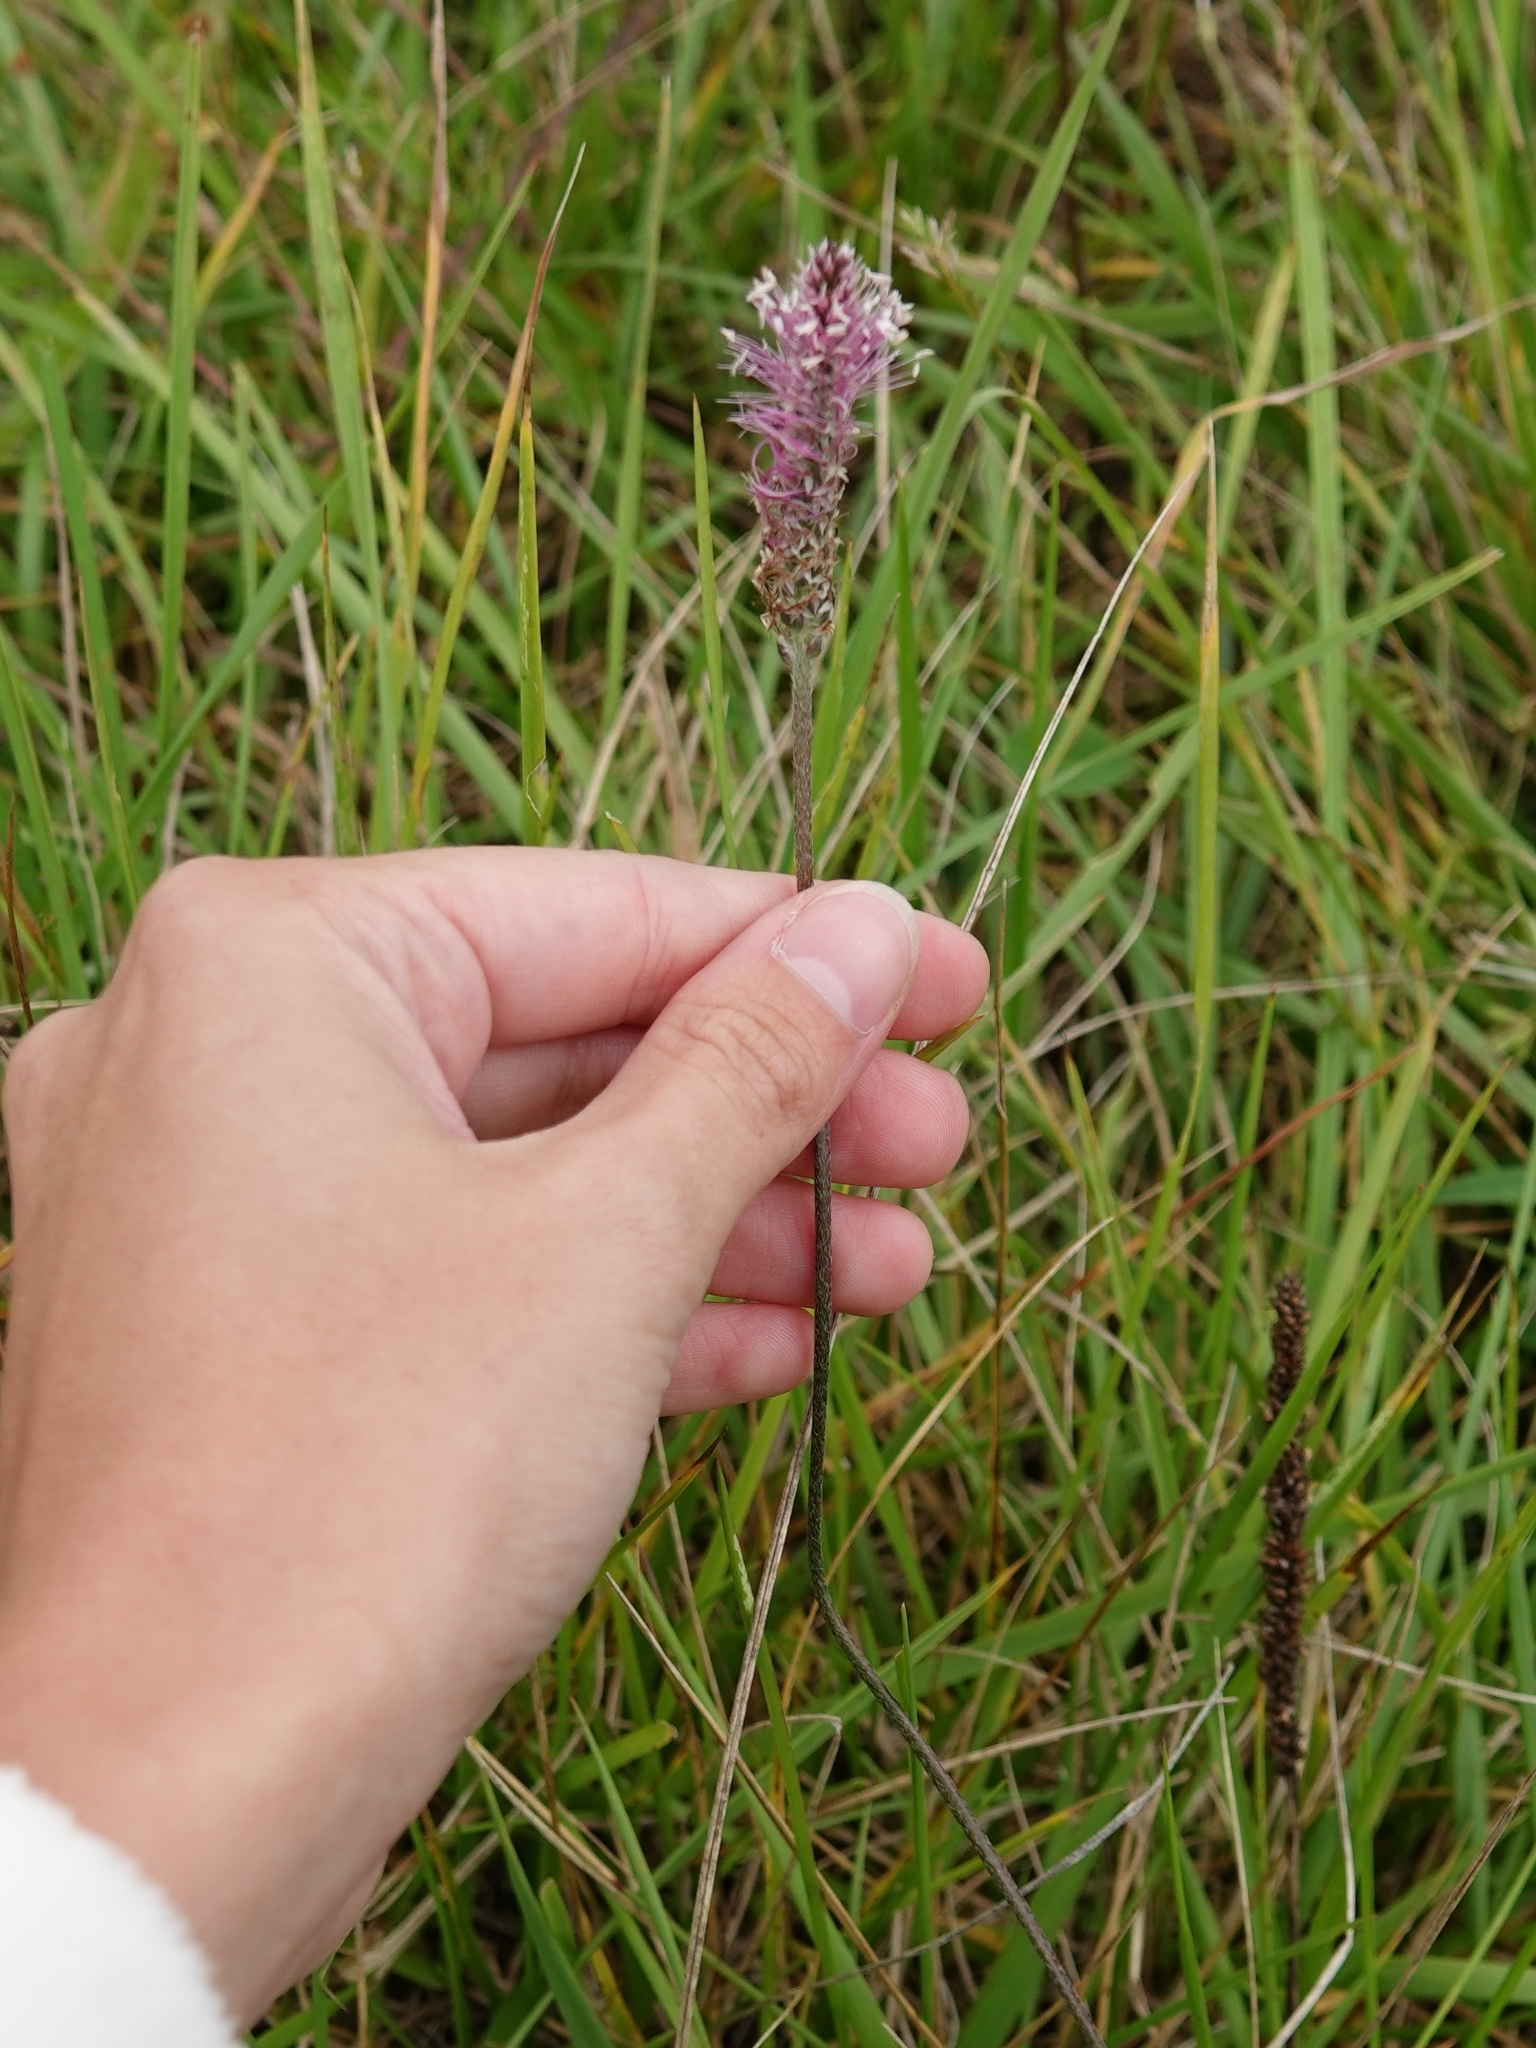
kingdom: Plantae
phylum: Tracheophyta
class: Magnoliopsida
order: Lamiales
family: Plantaginaceae
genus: Plantago
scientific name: Plantago media
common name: Hoary plantain
